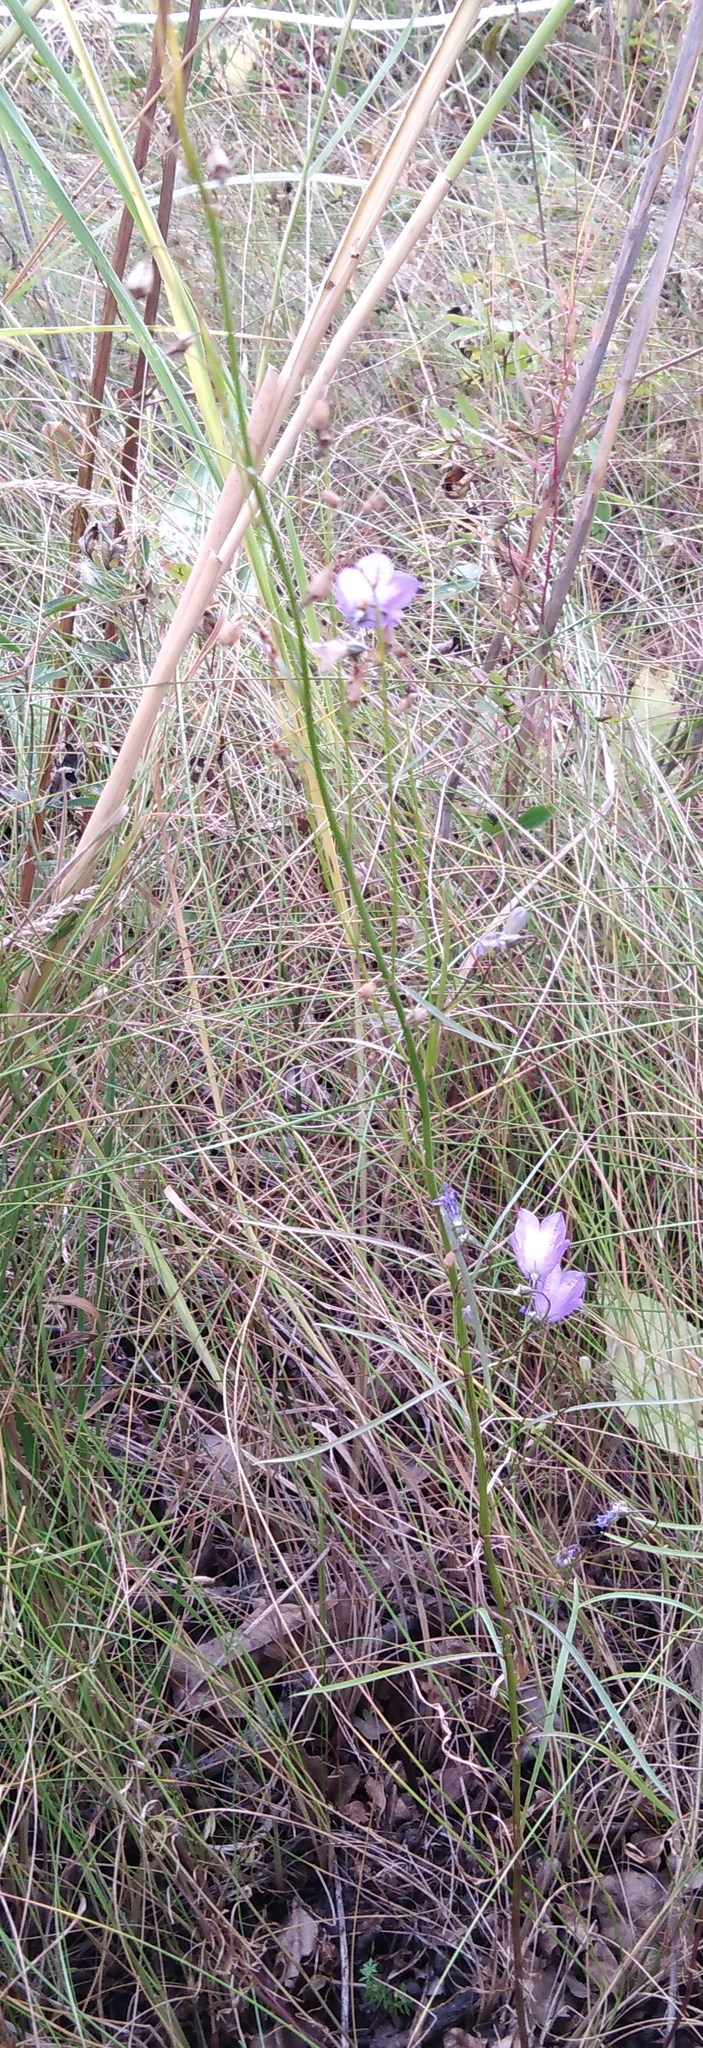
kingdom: Plantae
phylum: Tracheophyta
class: Magnoliopsida
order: Asterales
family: Campanulaceae
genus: Campanula
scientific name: Campanula persicifolia
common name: Peach-leaved bellflower
